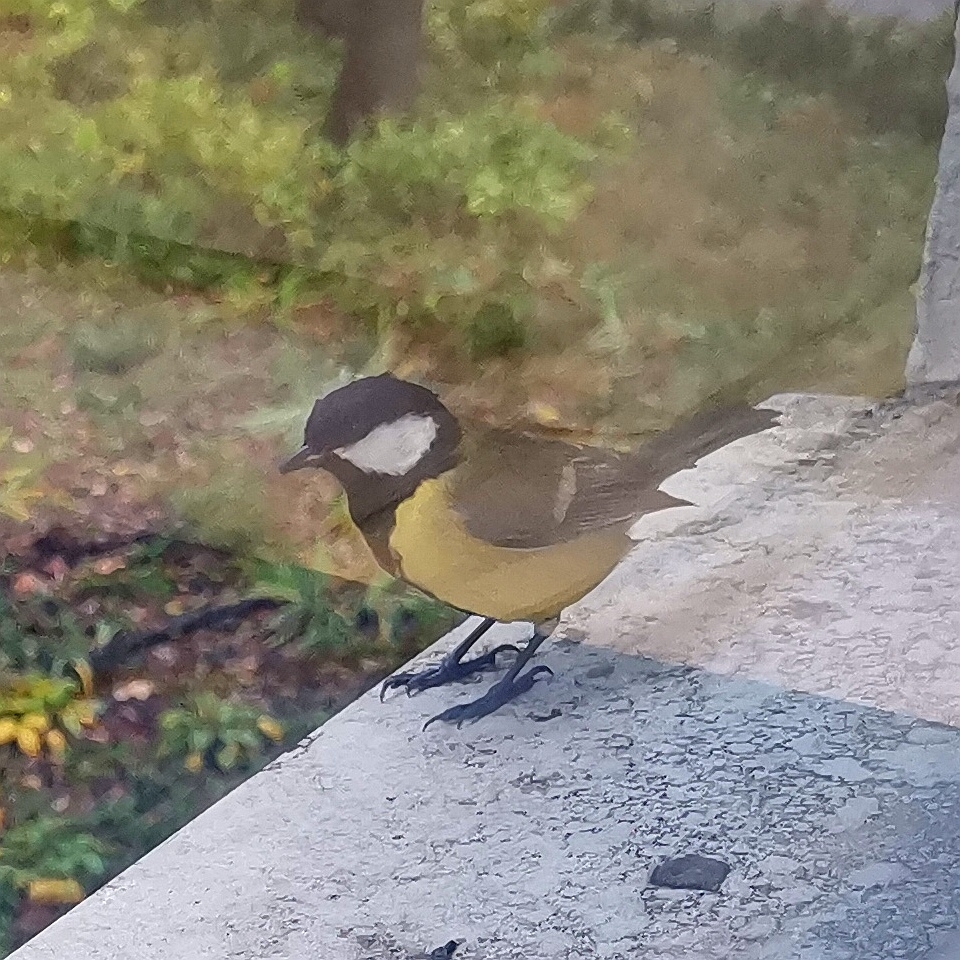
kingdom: Animalia
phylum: Chordata
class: Aves
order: Passeriformes
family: Paridae
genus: Parus
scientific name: Parus major
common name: Great tit
